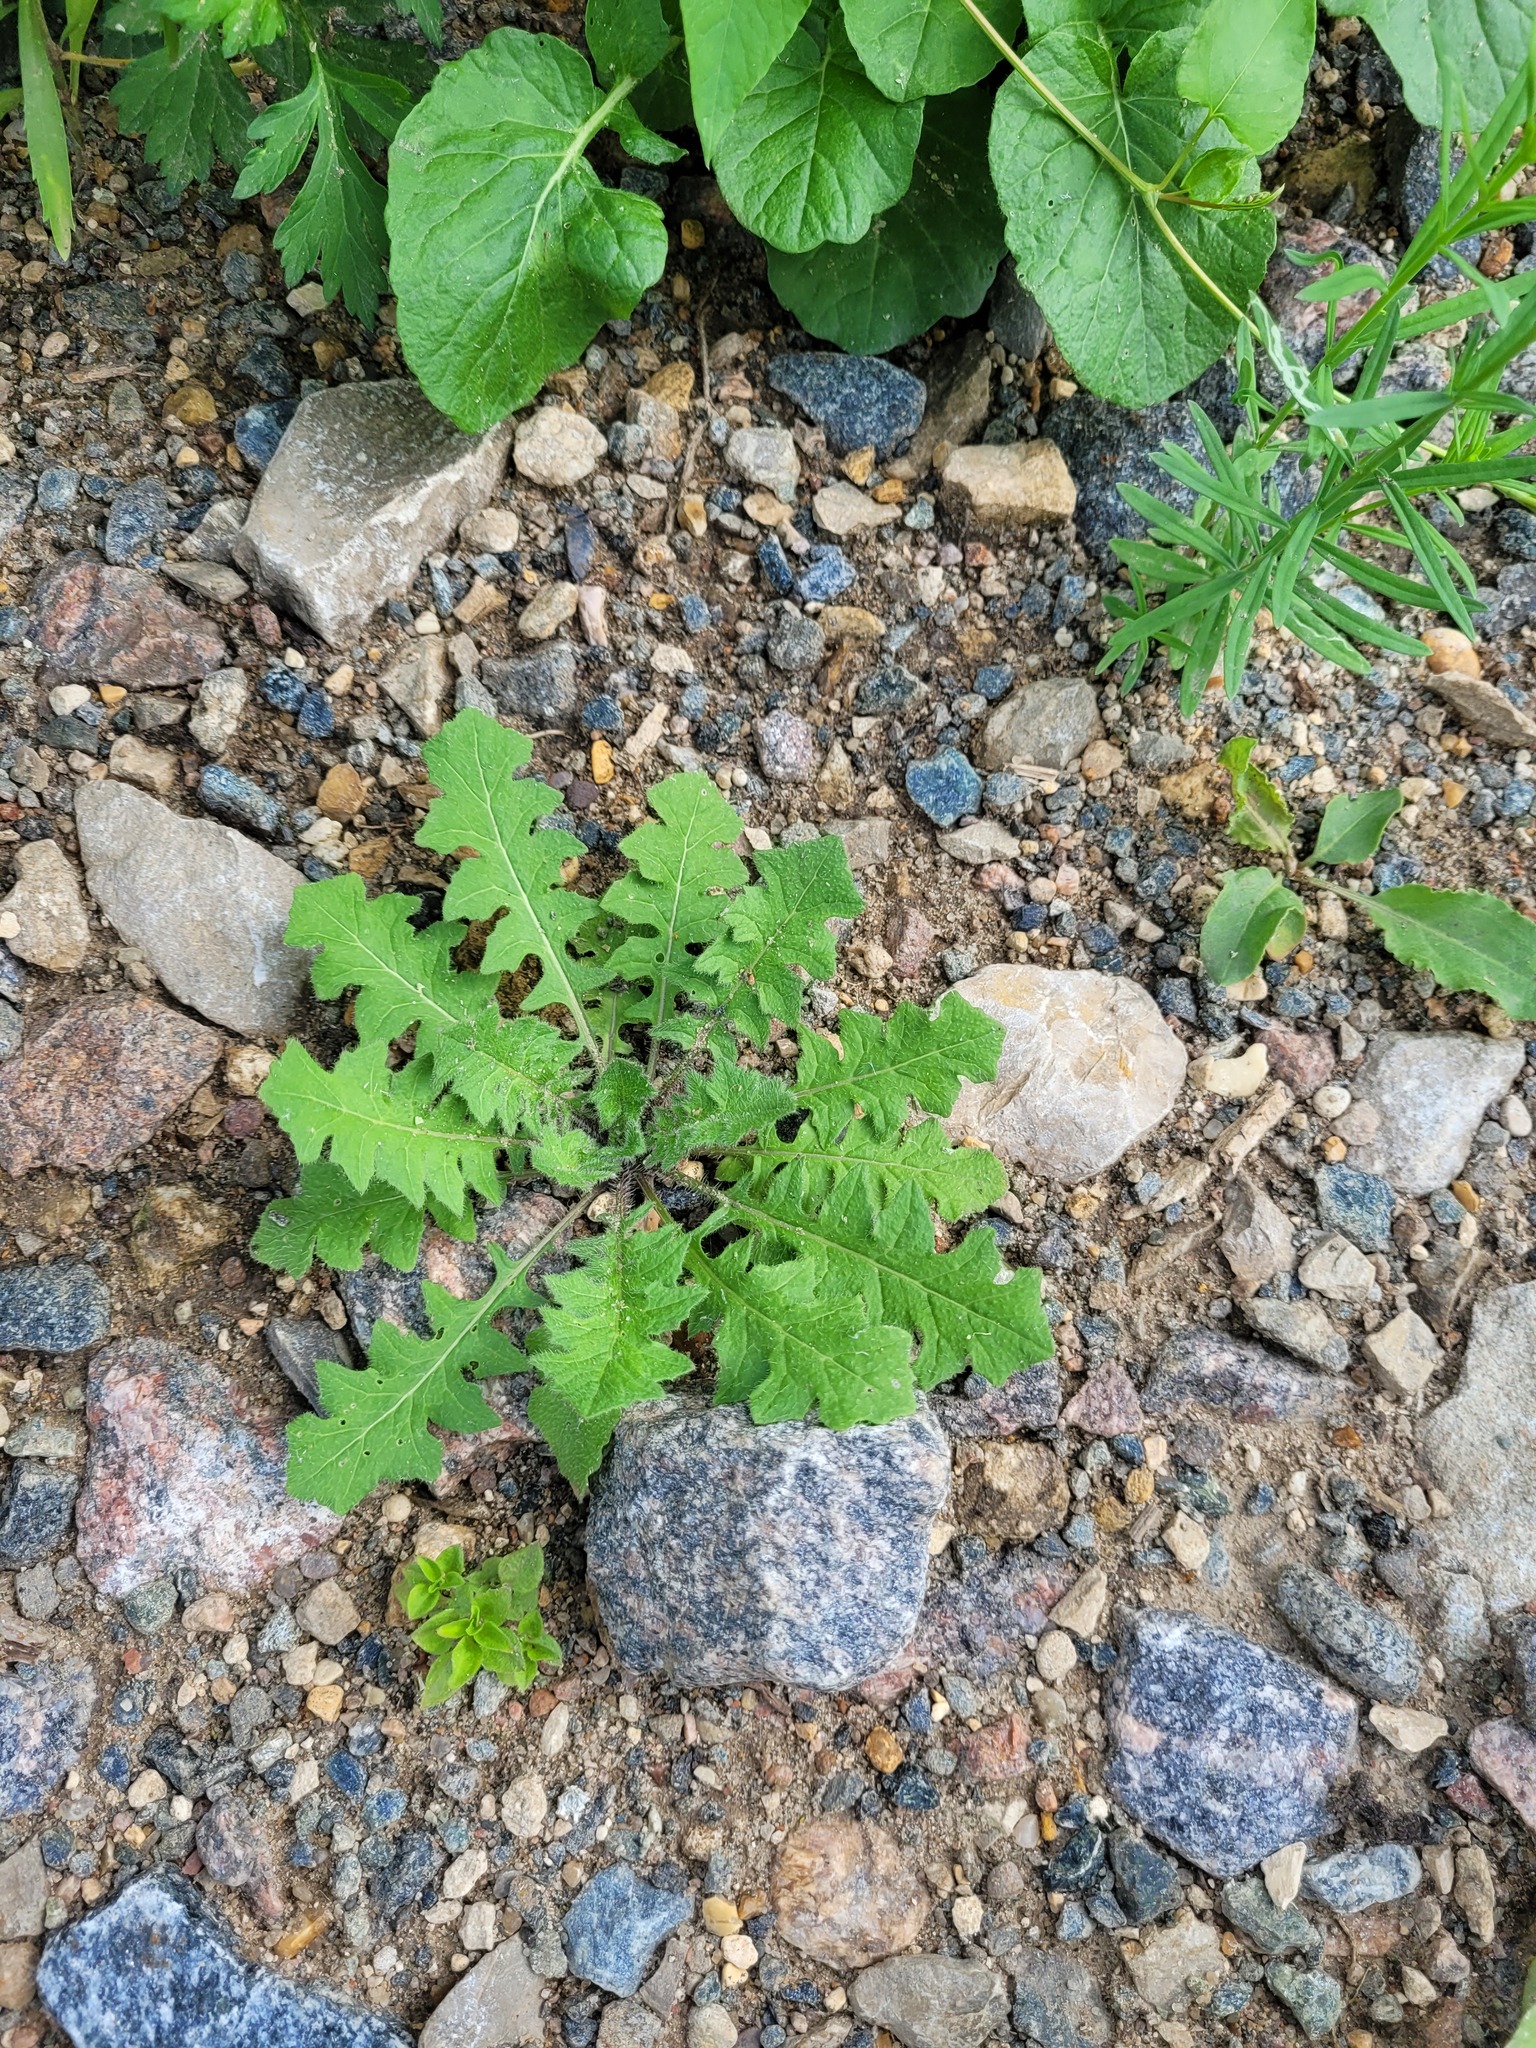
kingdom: Plantae
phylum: Tracheophyta
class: Magnoliopsida
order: Brassicales
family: Brassicaceae
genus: Sisymbrium
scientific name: Sisymbrium loeselii
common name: False london-rocket
